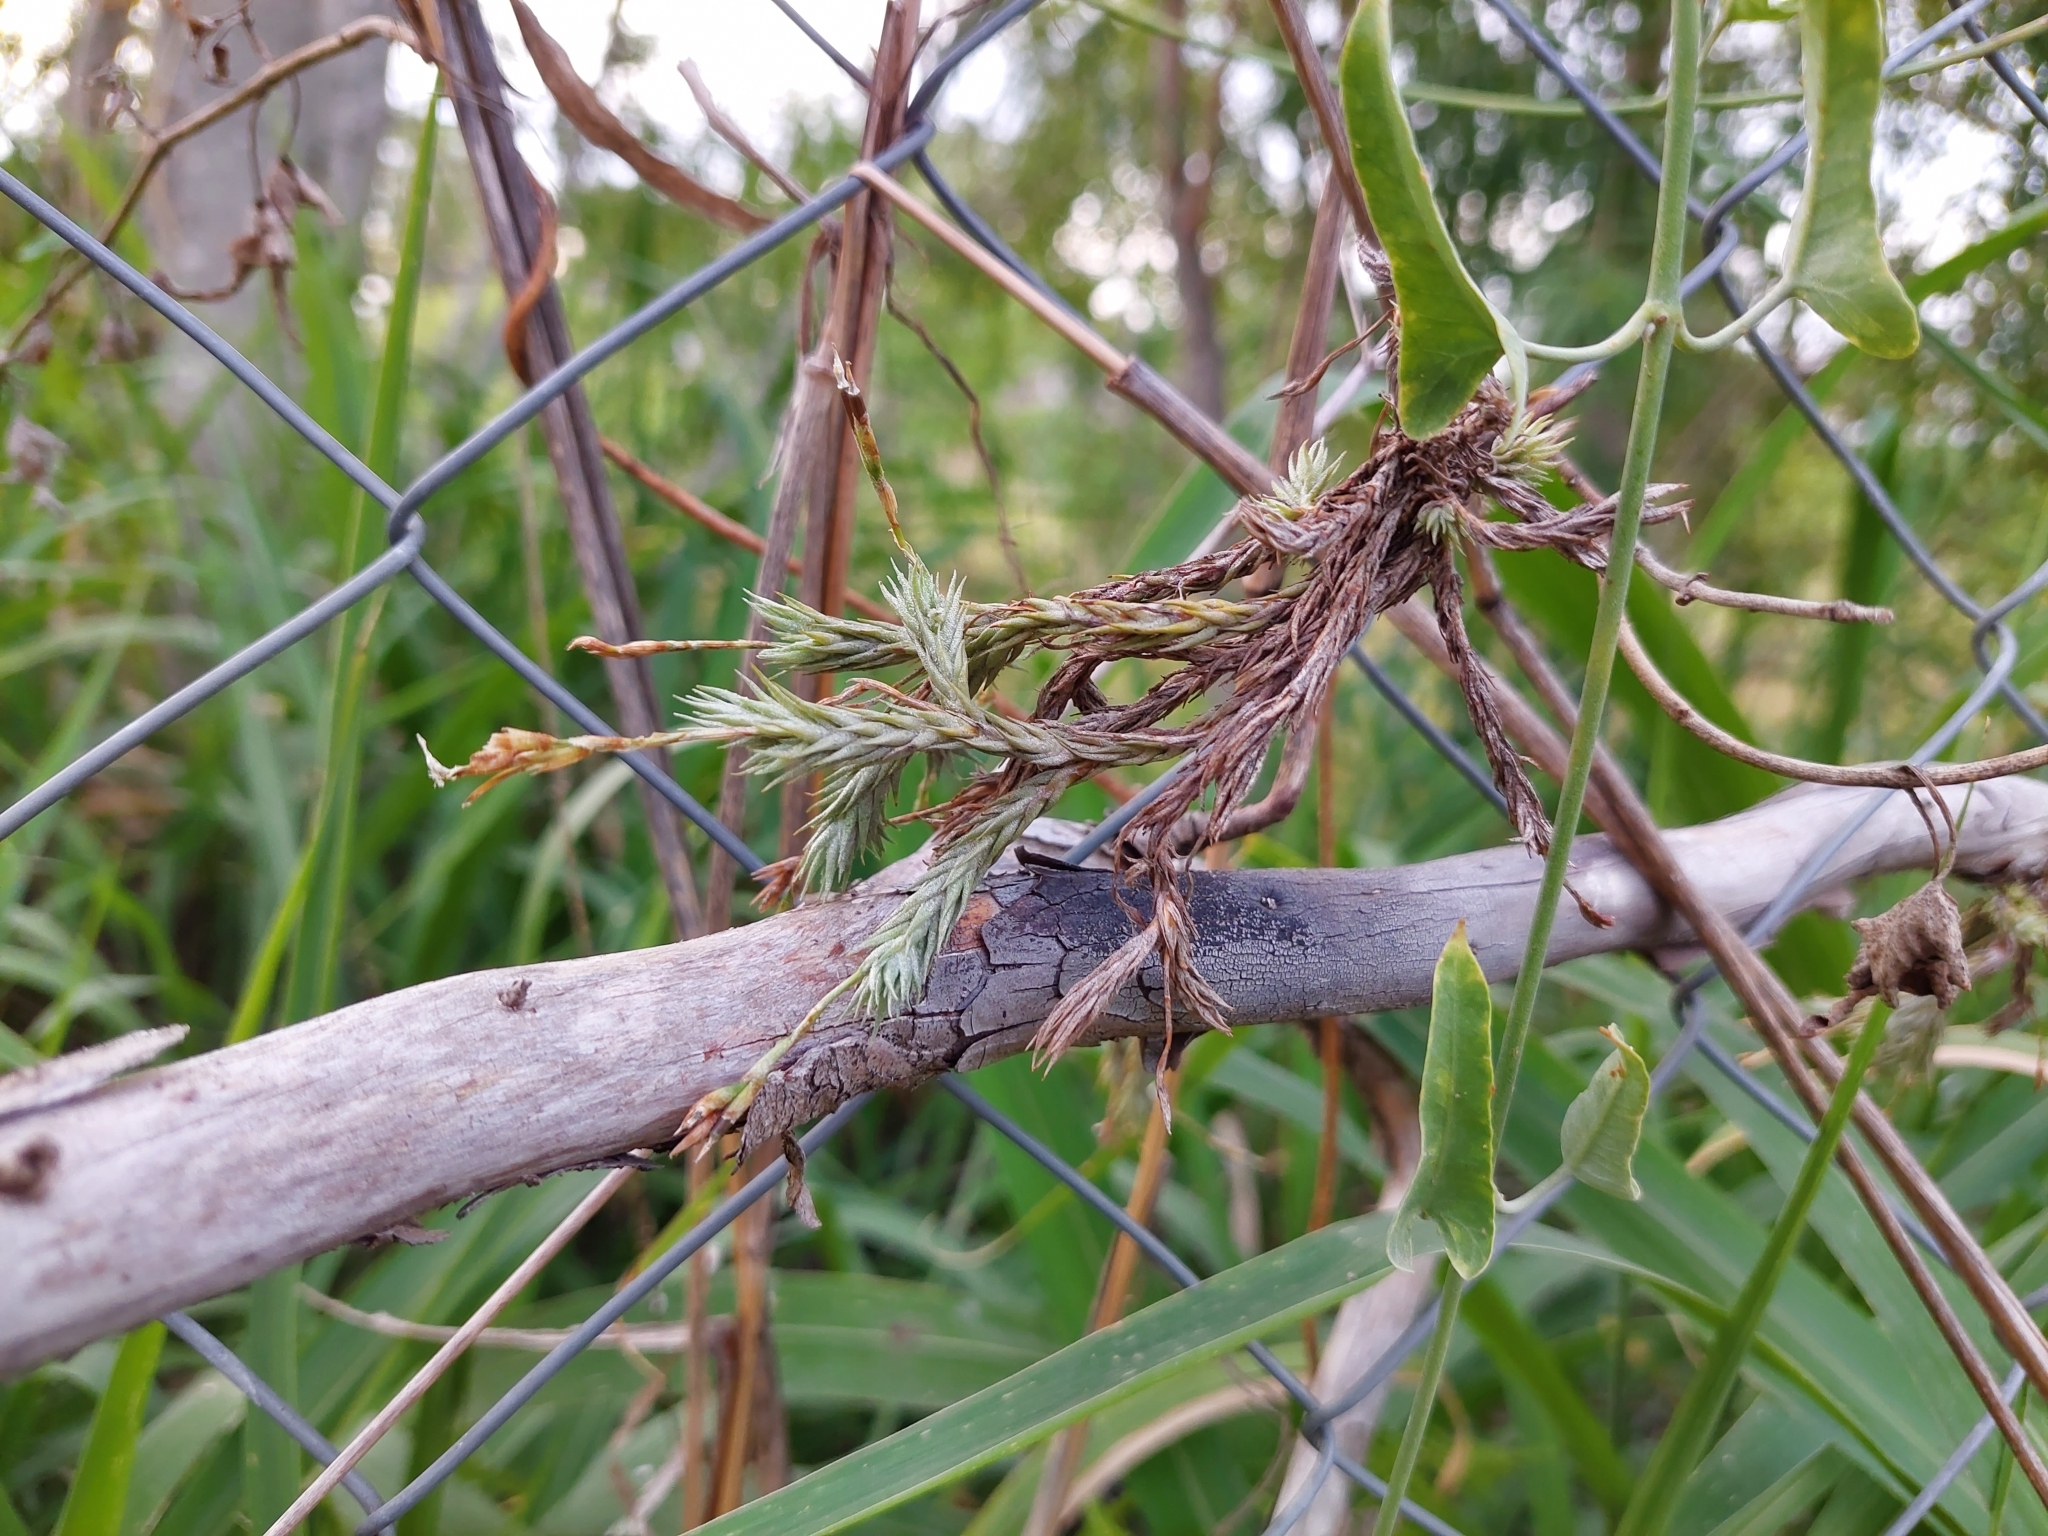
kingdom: Plantae
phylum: Tracheophyta
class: Liliopsida
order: Poales
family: Bromeliaceae
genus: Tillandsia
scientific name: Tillandsia tricholepis
